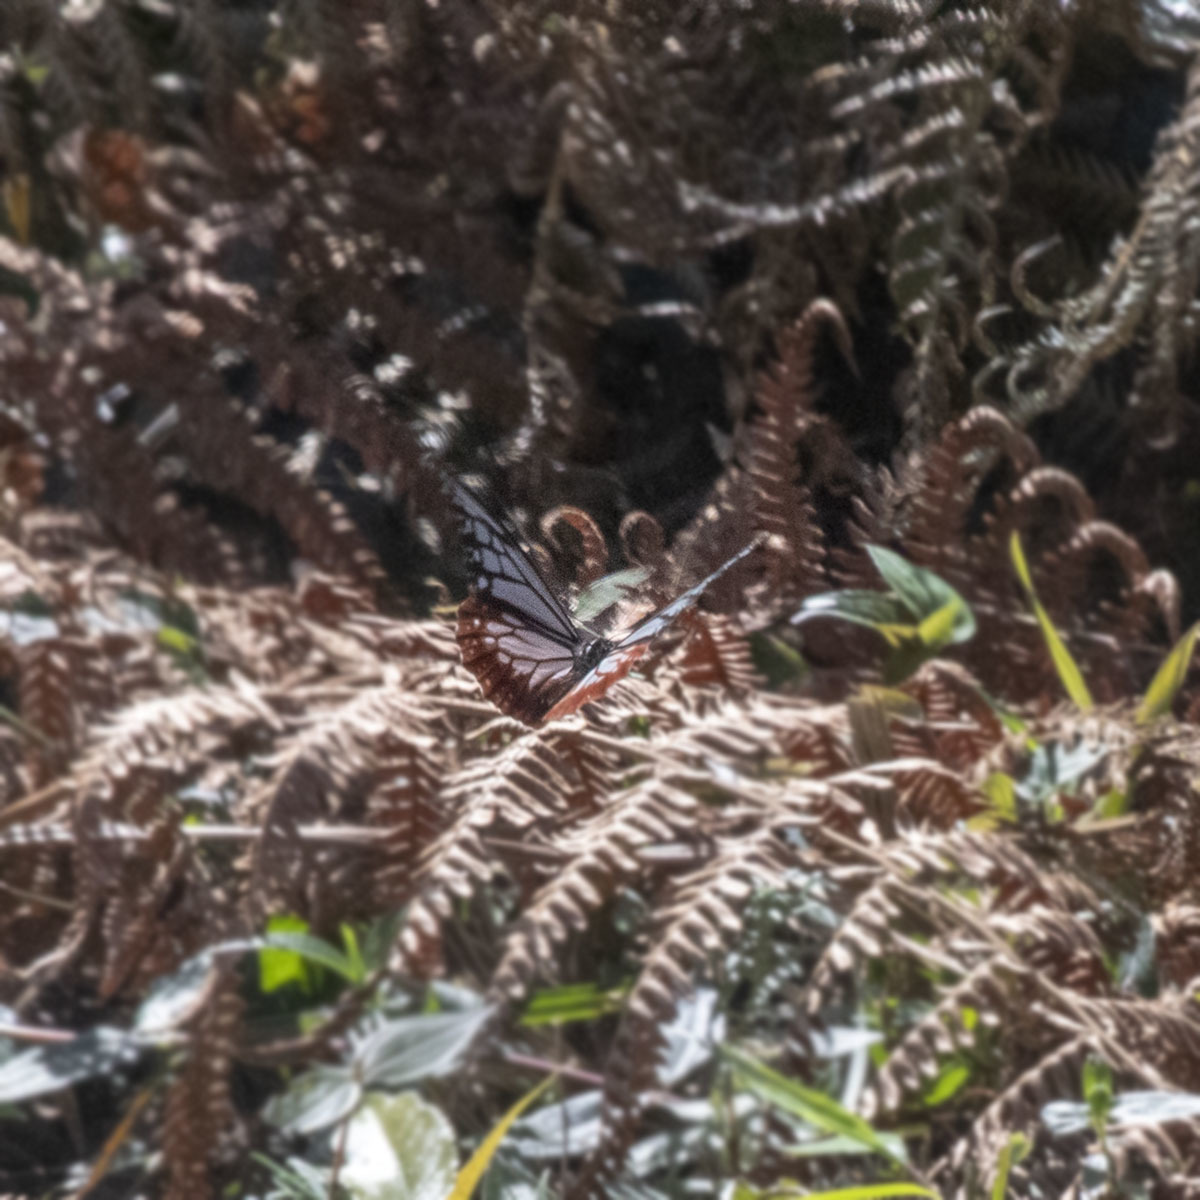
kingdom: Animalia
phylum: Arthropoda
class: Insecta
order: Lepidoptera
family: Nymphalidae
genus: Parantica
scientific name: Parantica sita
